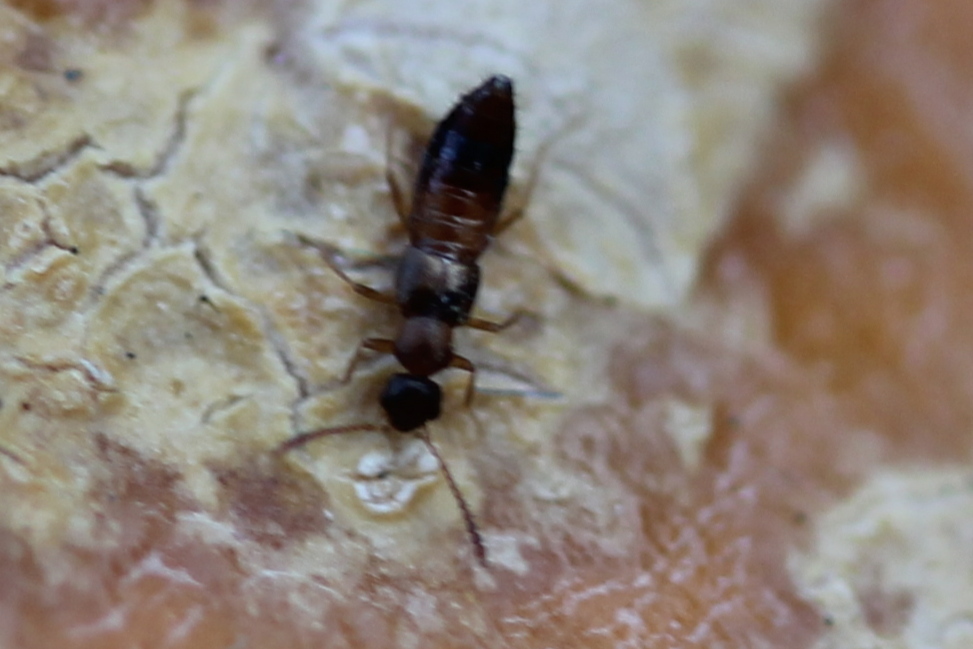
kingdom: Animalia
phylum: Arthropoda
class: Insecta
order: Coleoptera
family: Staphylinidae
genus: Meronera
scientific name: Meronera venustula
